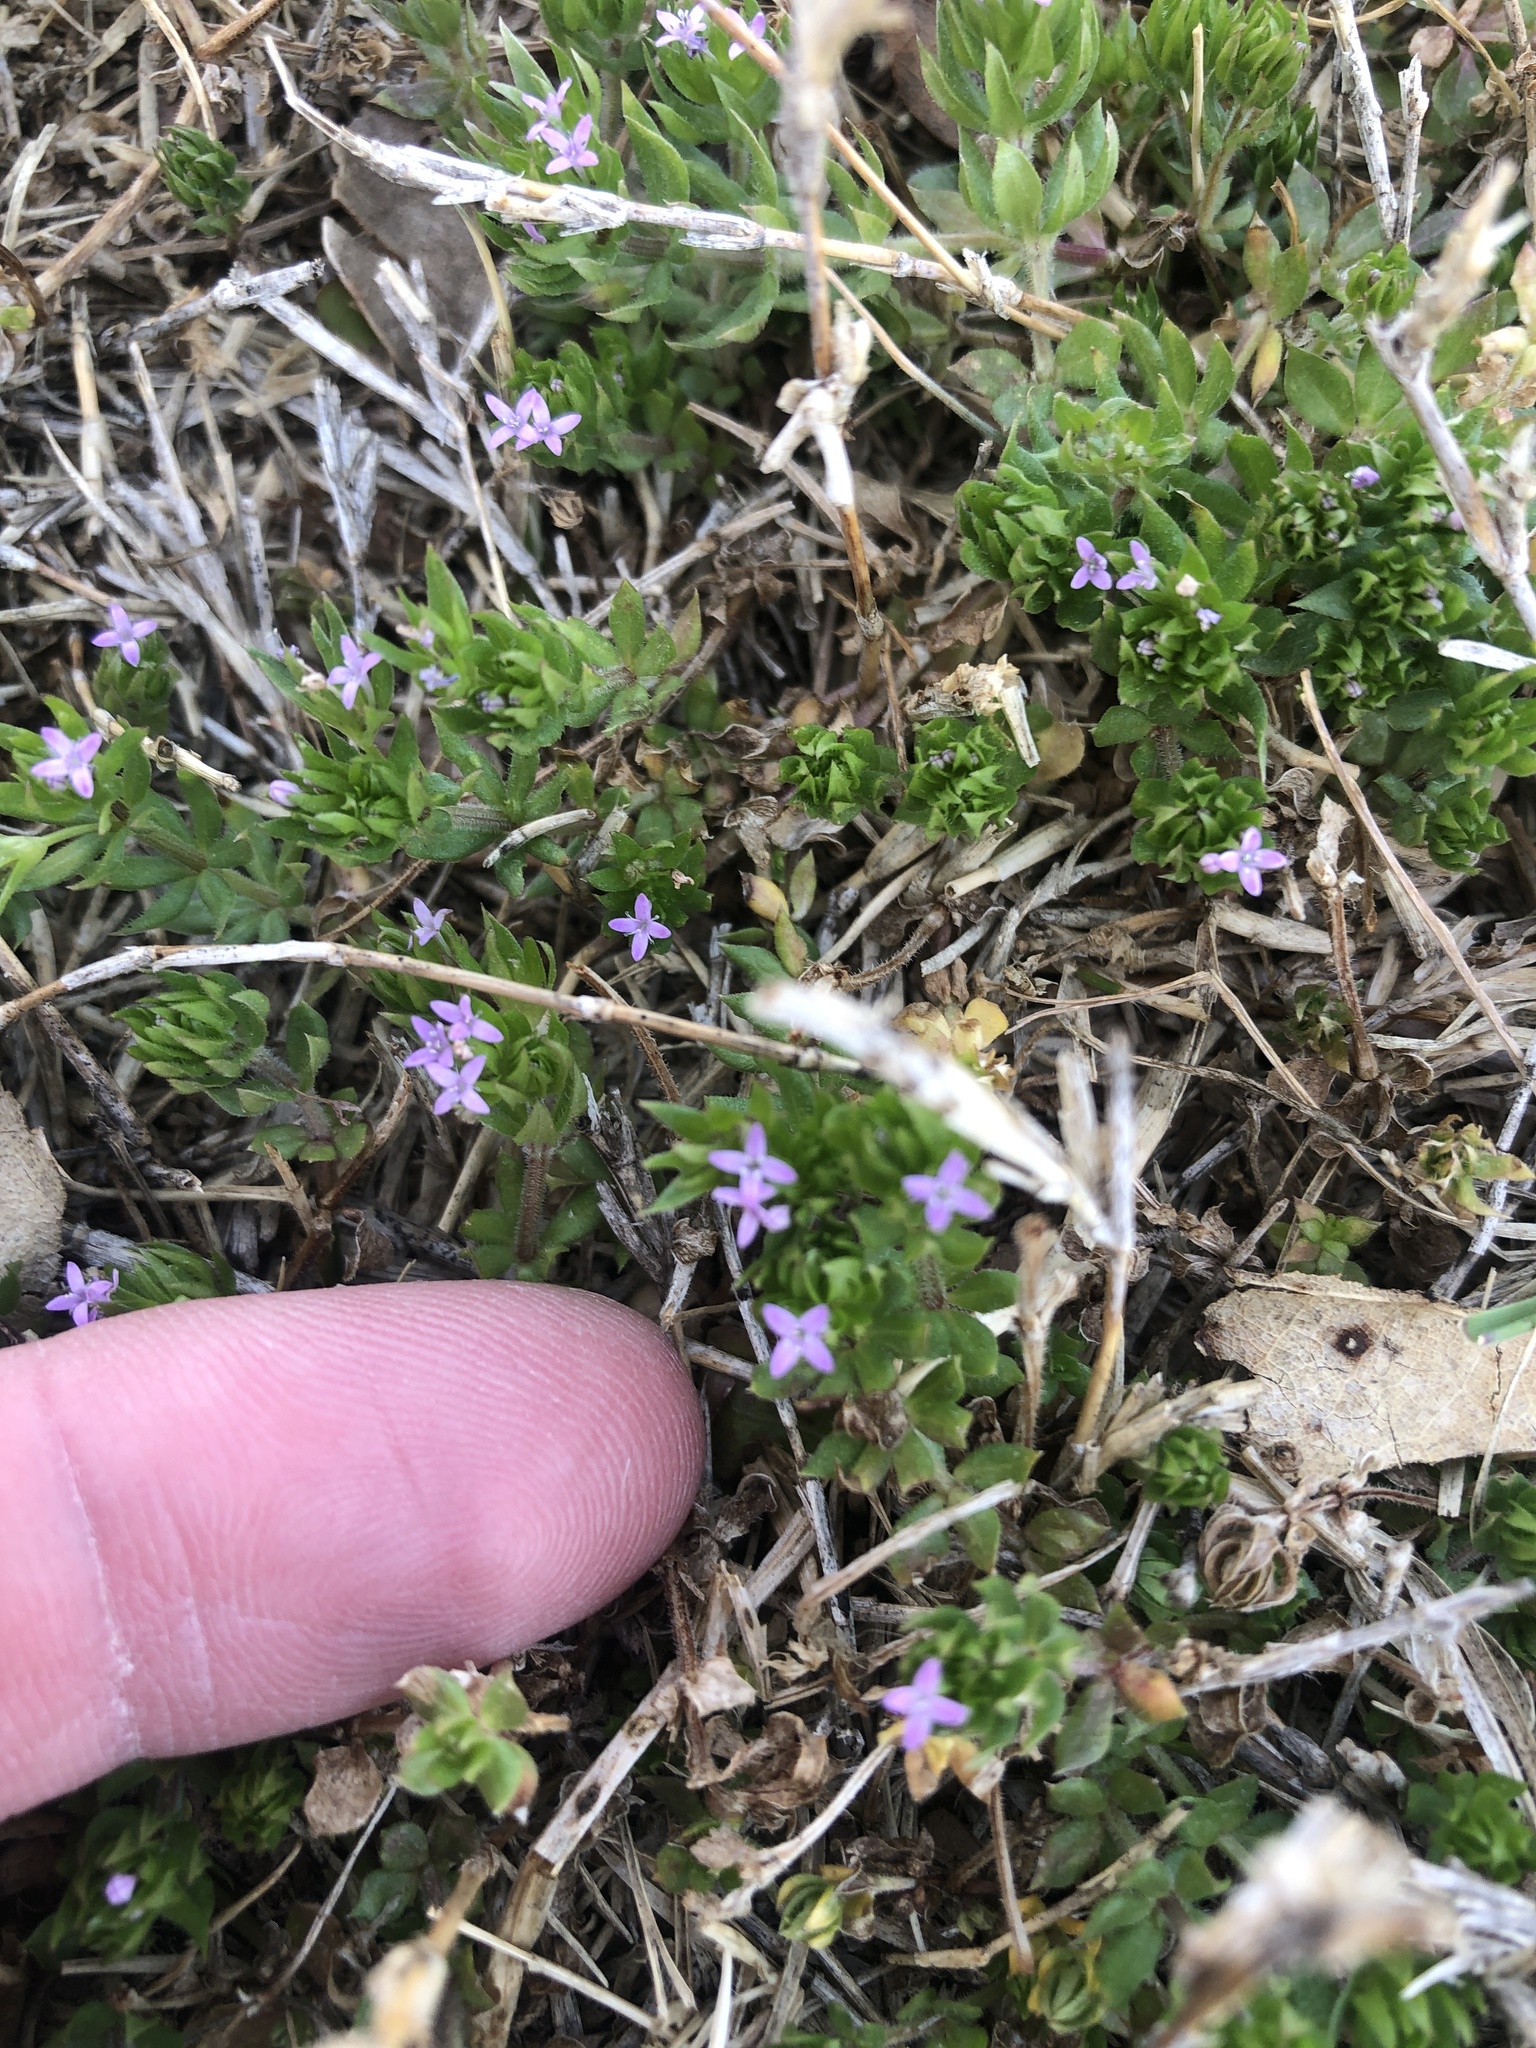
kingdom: Plantae
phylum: Tracheophyta
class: Magnoliopsida
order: Gentianales
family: Rubiaceae
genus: Sherardia
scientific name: Sherardia arvensis
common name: Field madder
